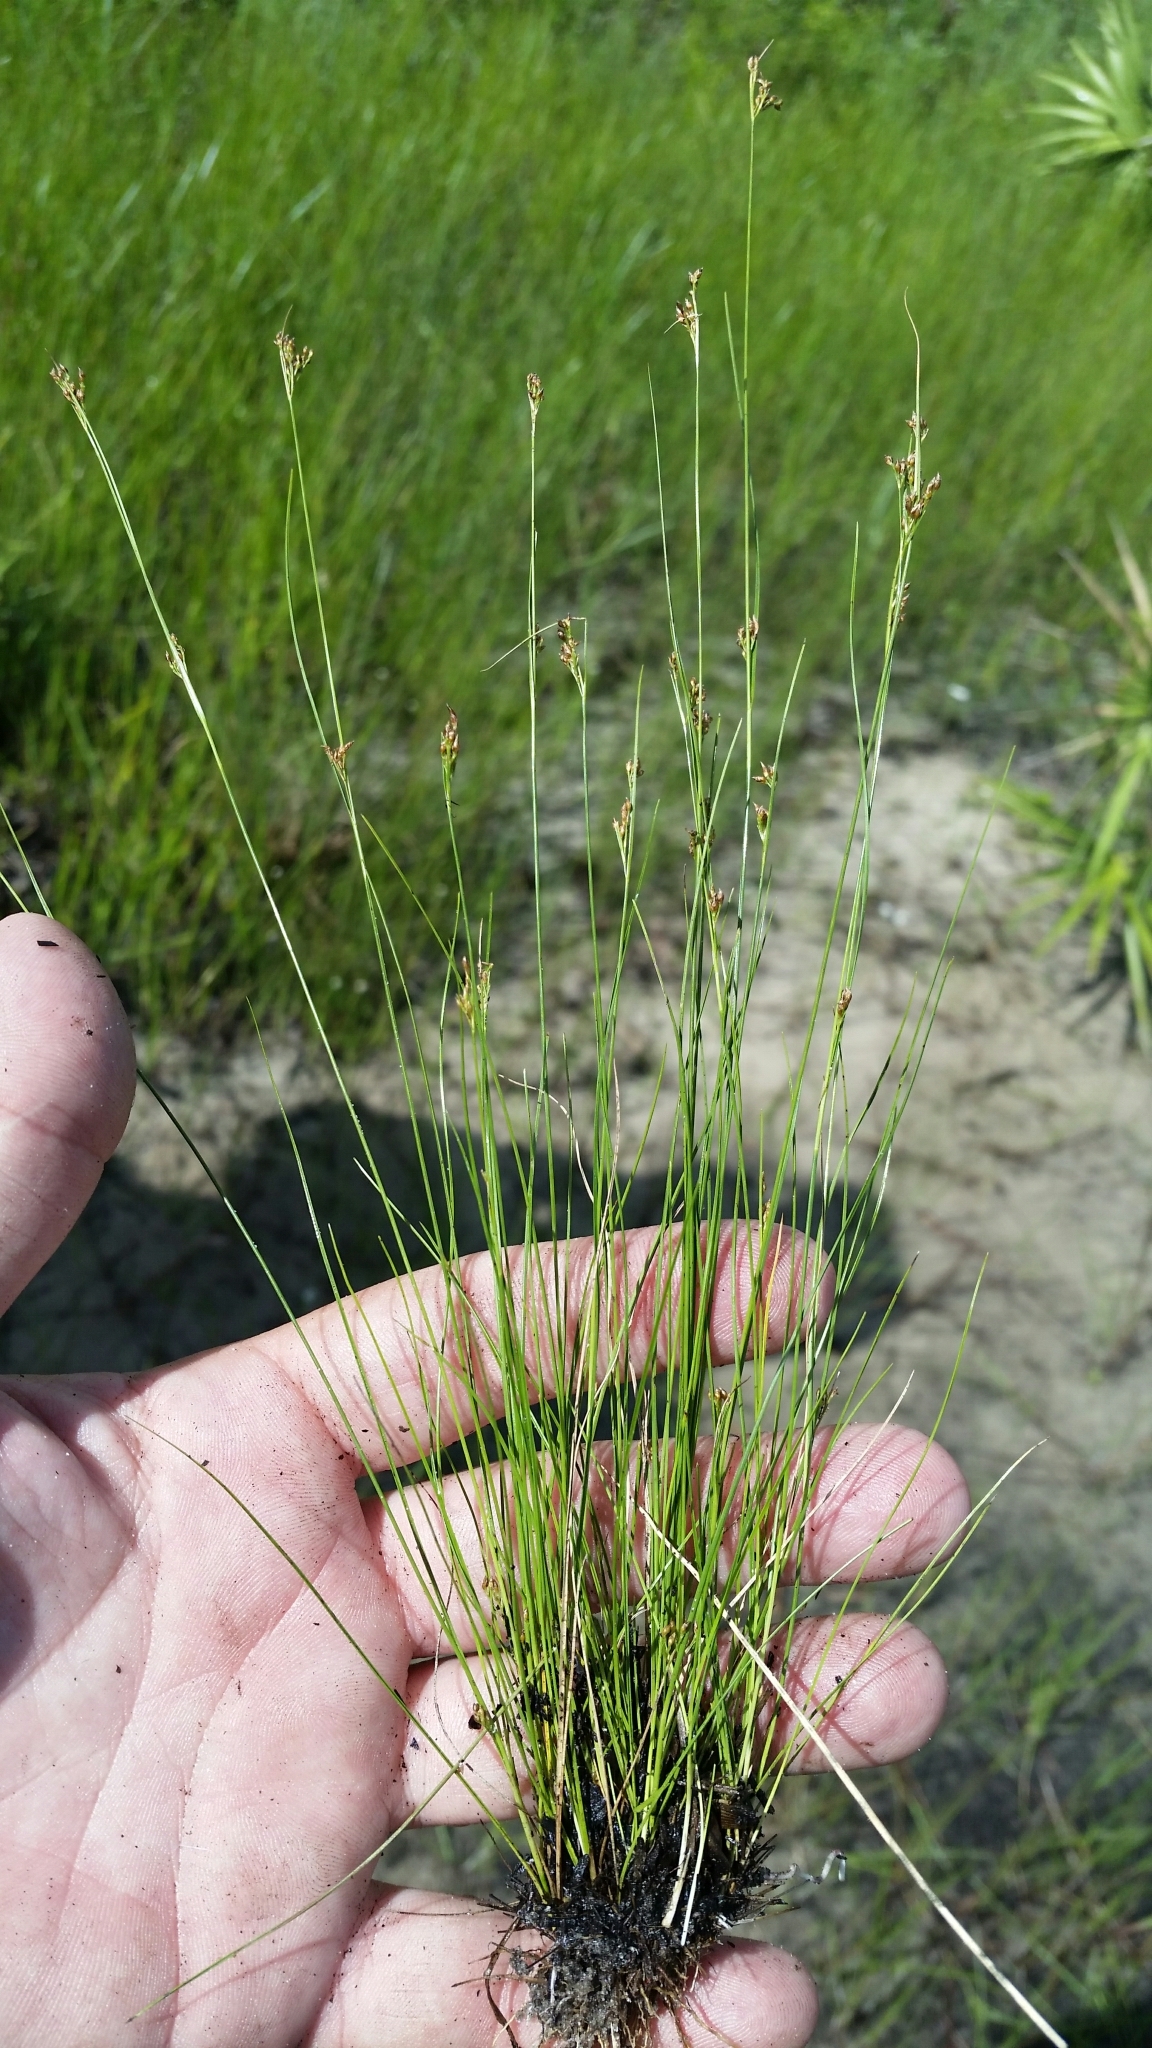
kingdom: Plantae
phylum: Tracheophyta
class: Liliopsida
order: Poales
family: Cyperaceae
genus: Rhynchospora
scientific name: Rhynchospora divergens
